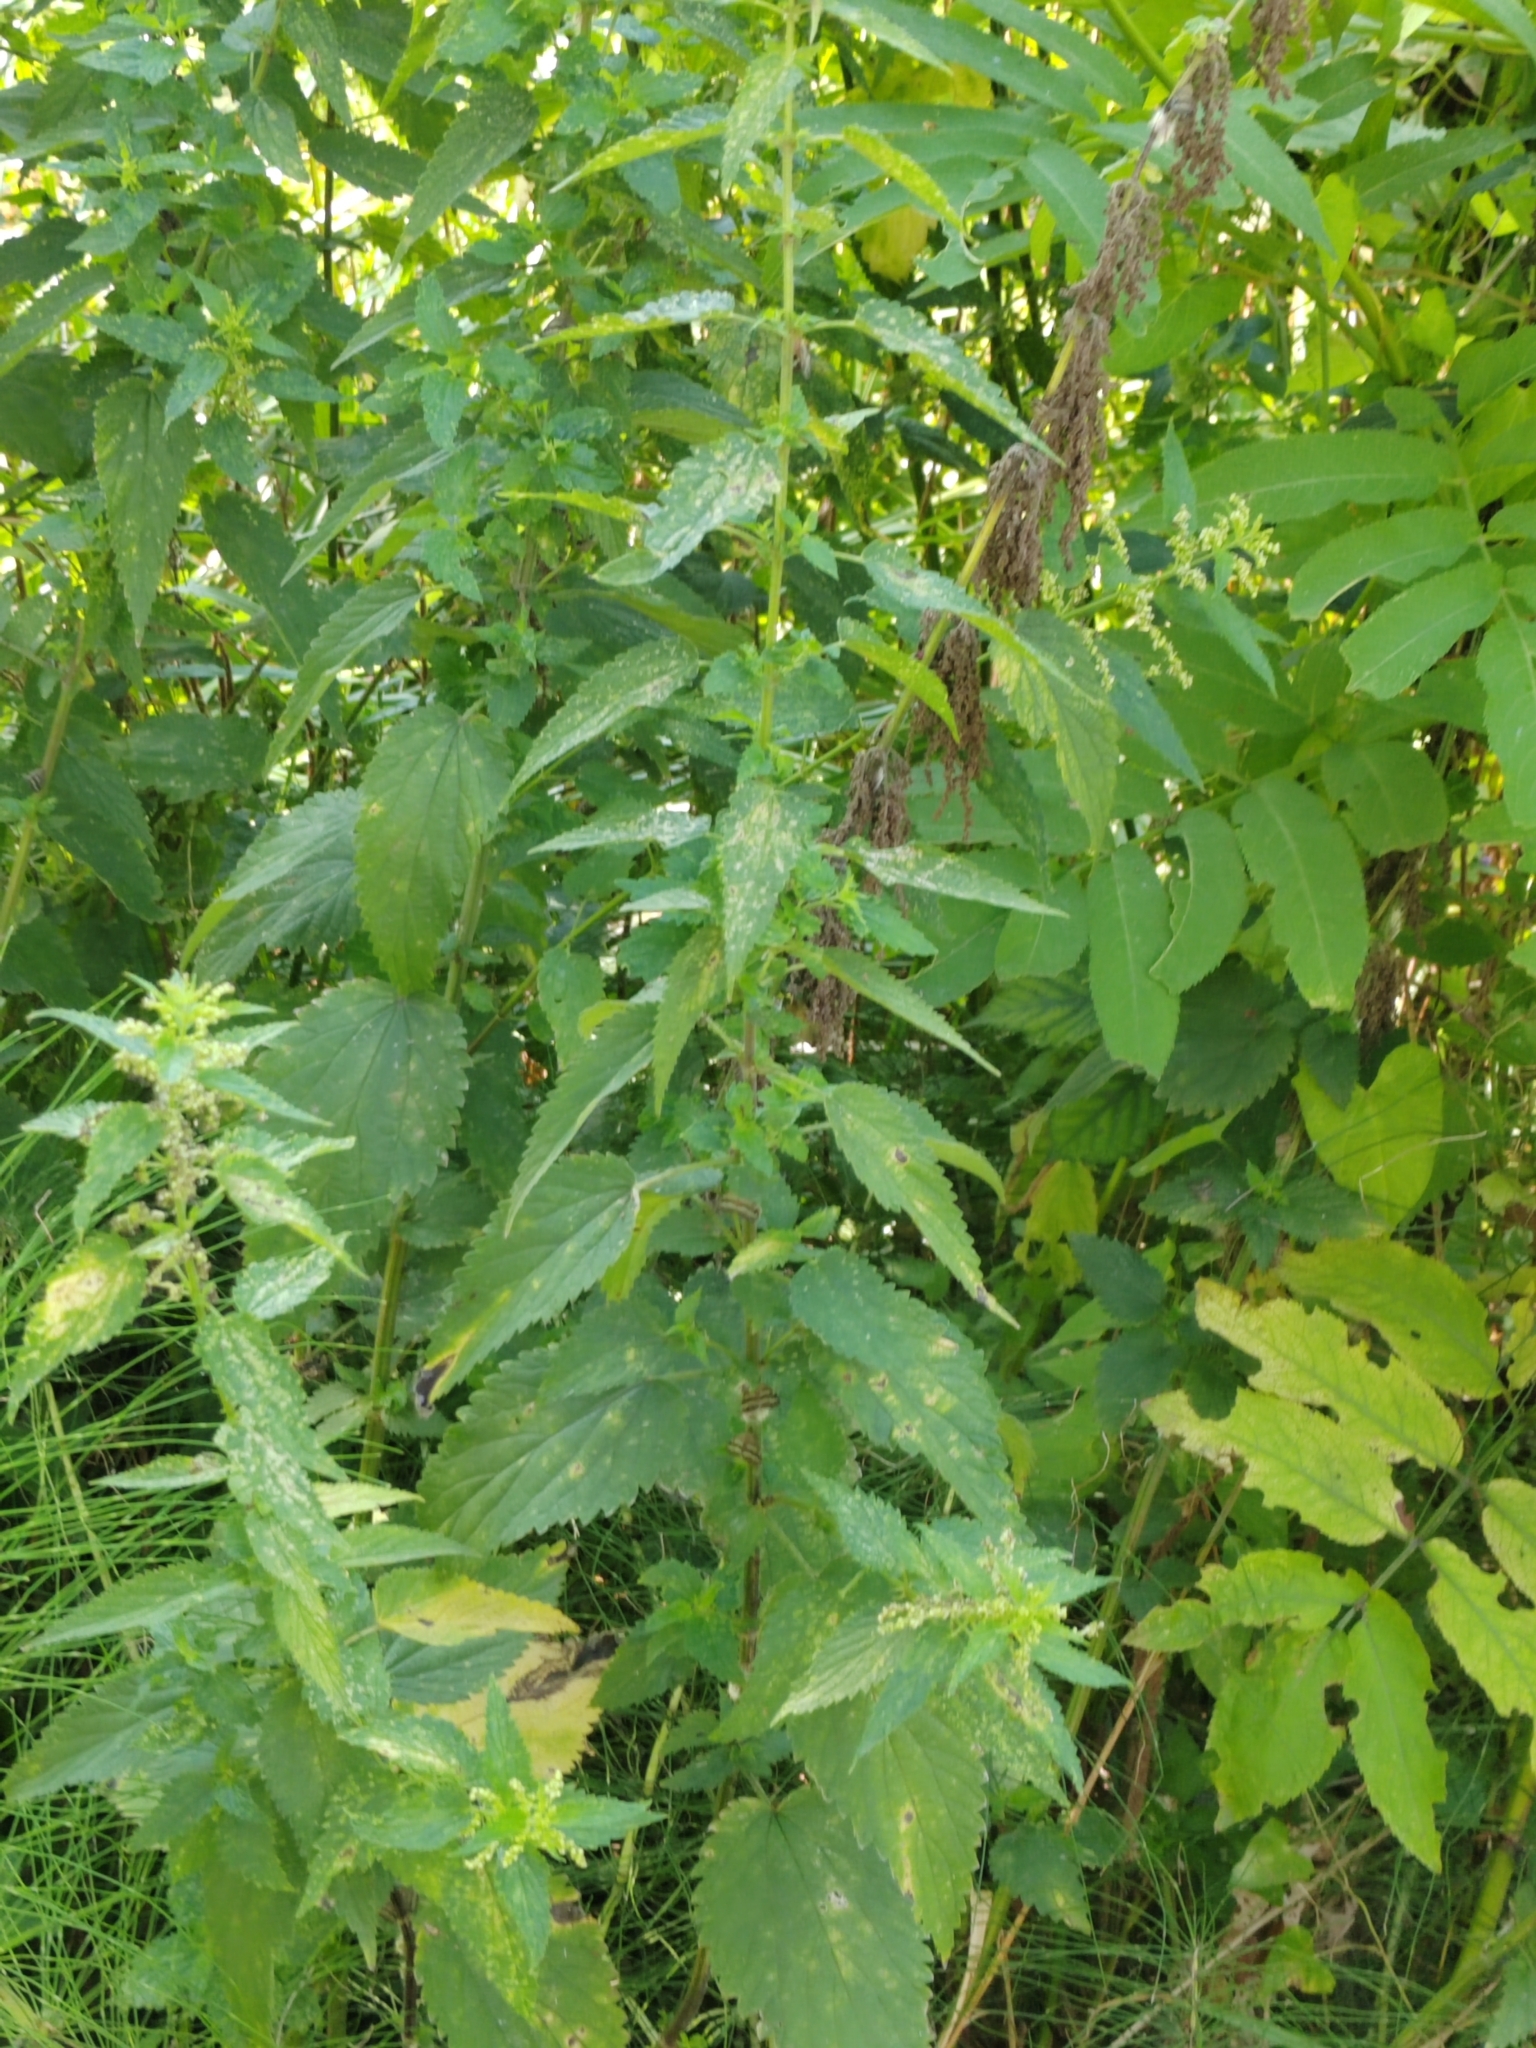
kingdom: Plantae
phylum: Tracheophyta
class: Magnoliopsida
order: Rosales
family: Urticaceae
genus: Urtica
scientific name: Urtica dioica
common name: Common nettle
